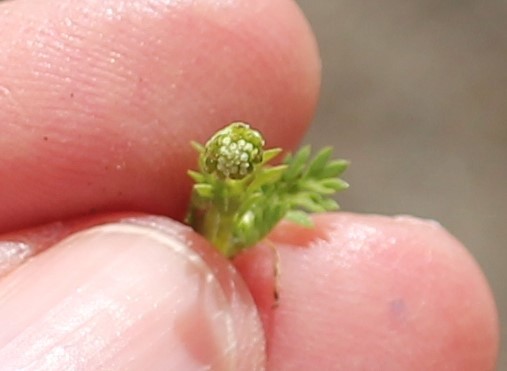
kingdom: Plantae
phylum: Tracheophyta
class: Magnoliopsida
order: Asterales
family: Asteraceae
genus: Cotula
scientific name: Cotula australis
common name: Australian waterbuttons
